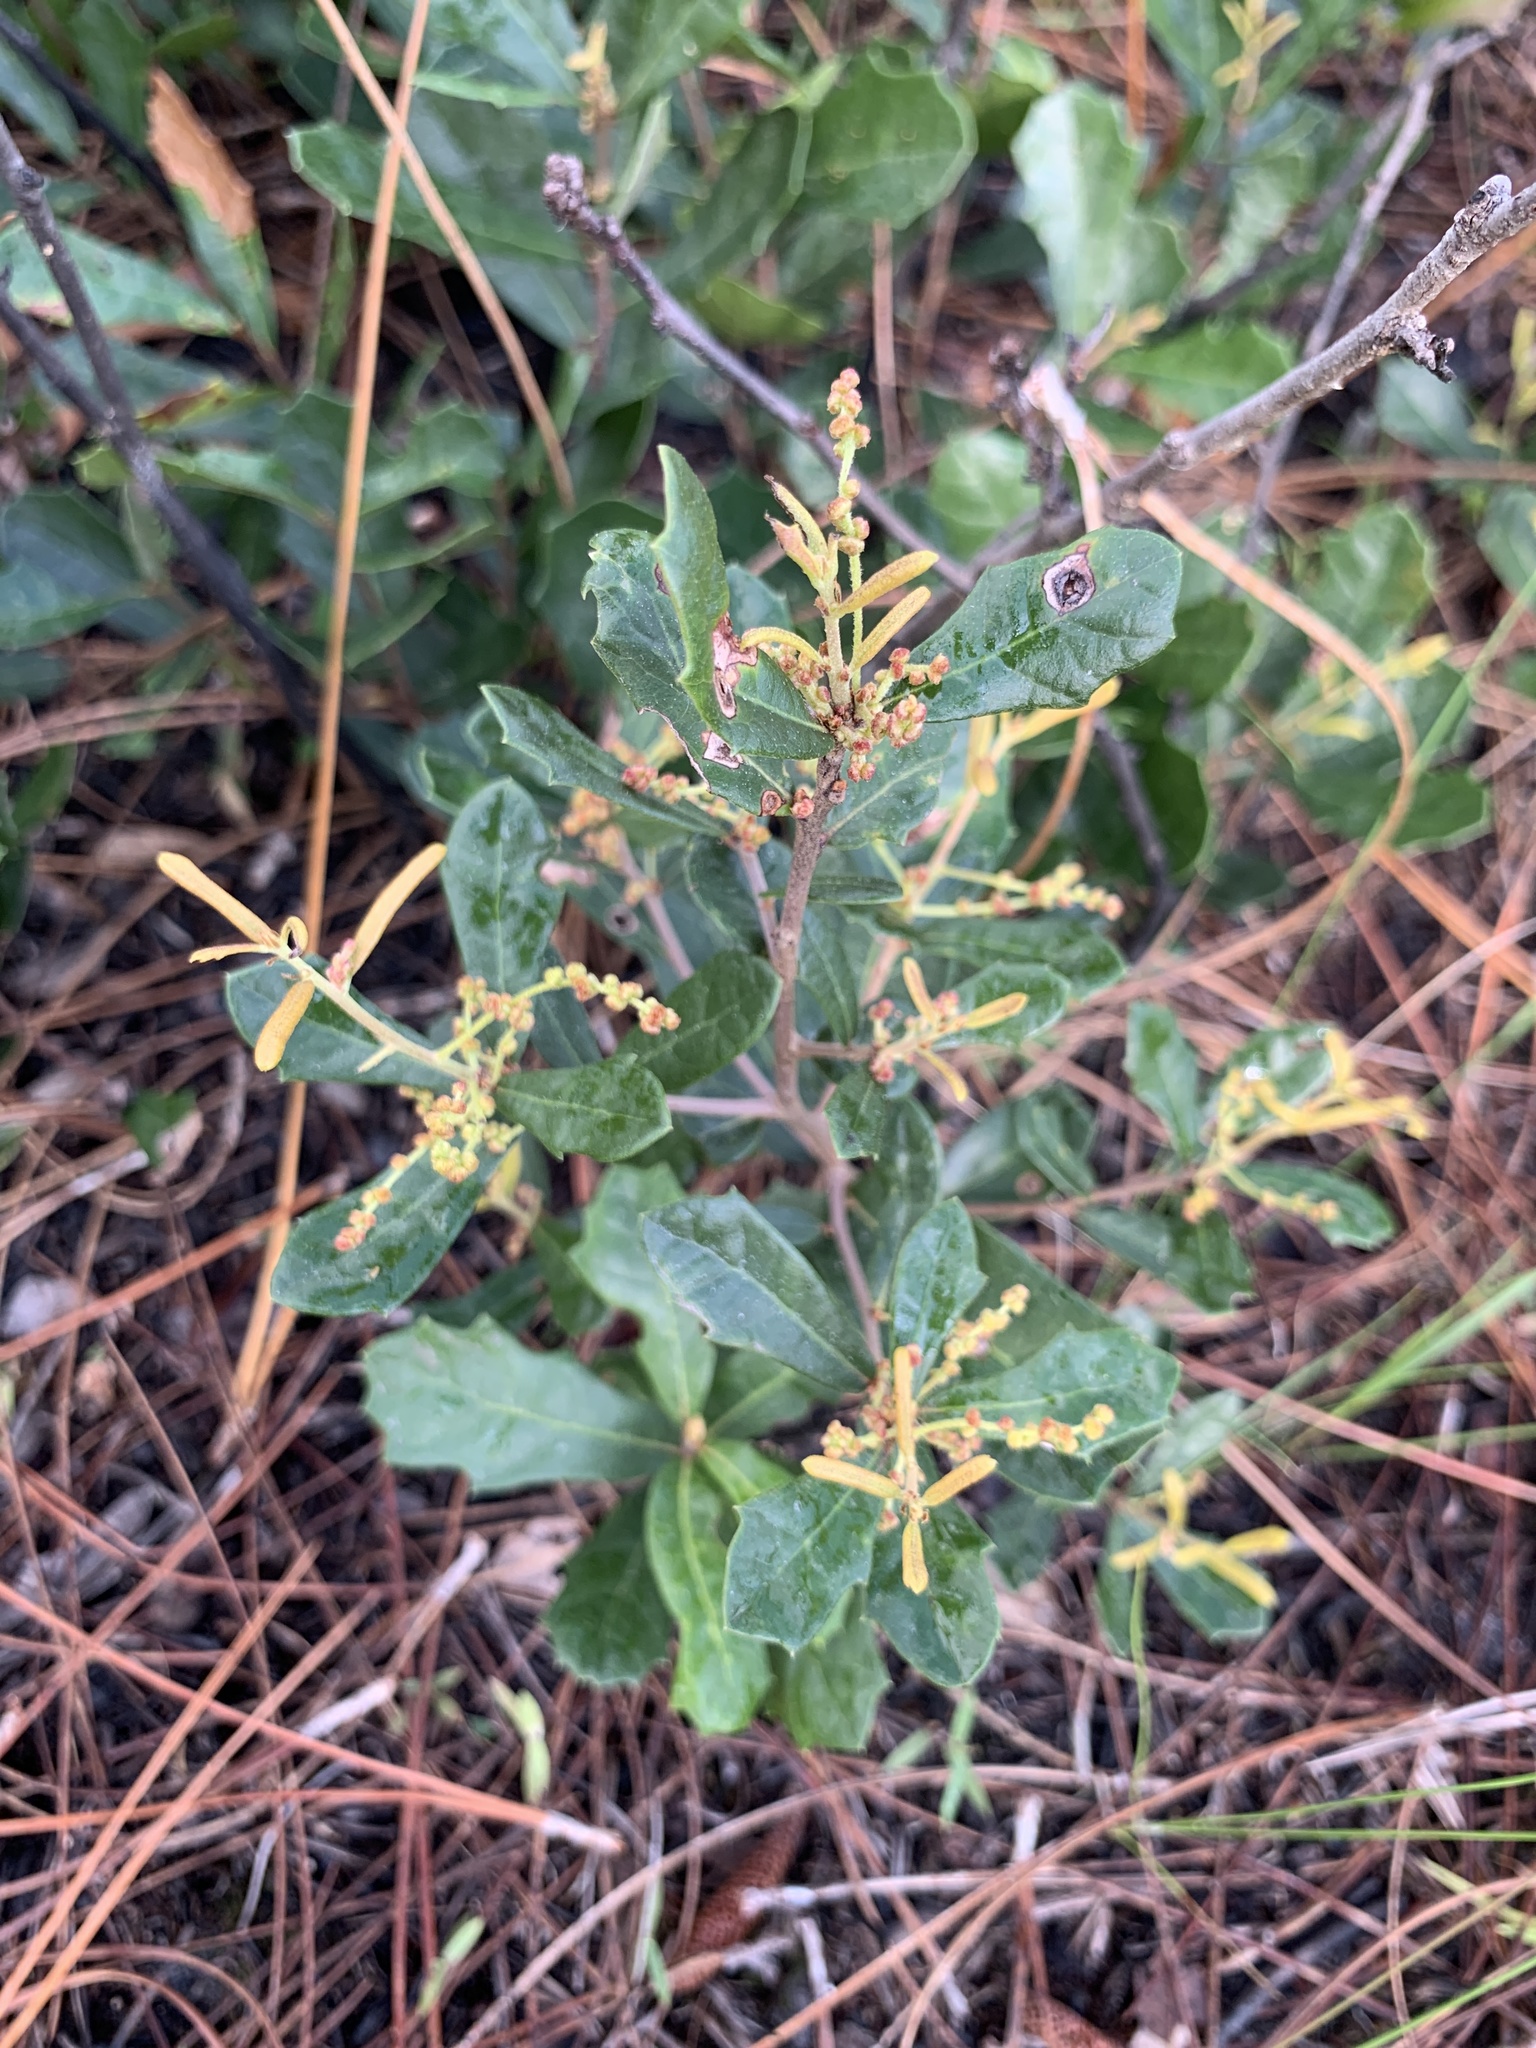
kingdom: Plantae
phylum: Tracheophyta
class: Magnoliopsida
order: Fagales
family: Fagaceae
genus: Quercus
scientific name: Quercus minima
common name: Dwarf live oak
